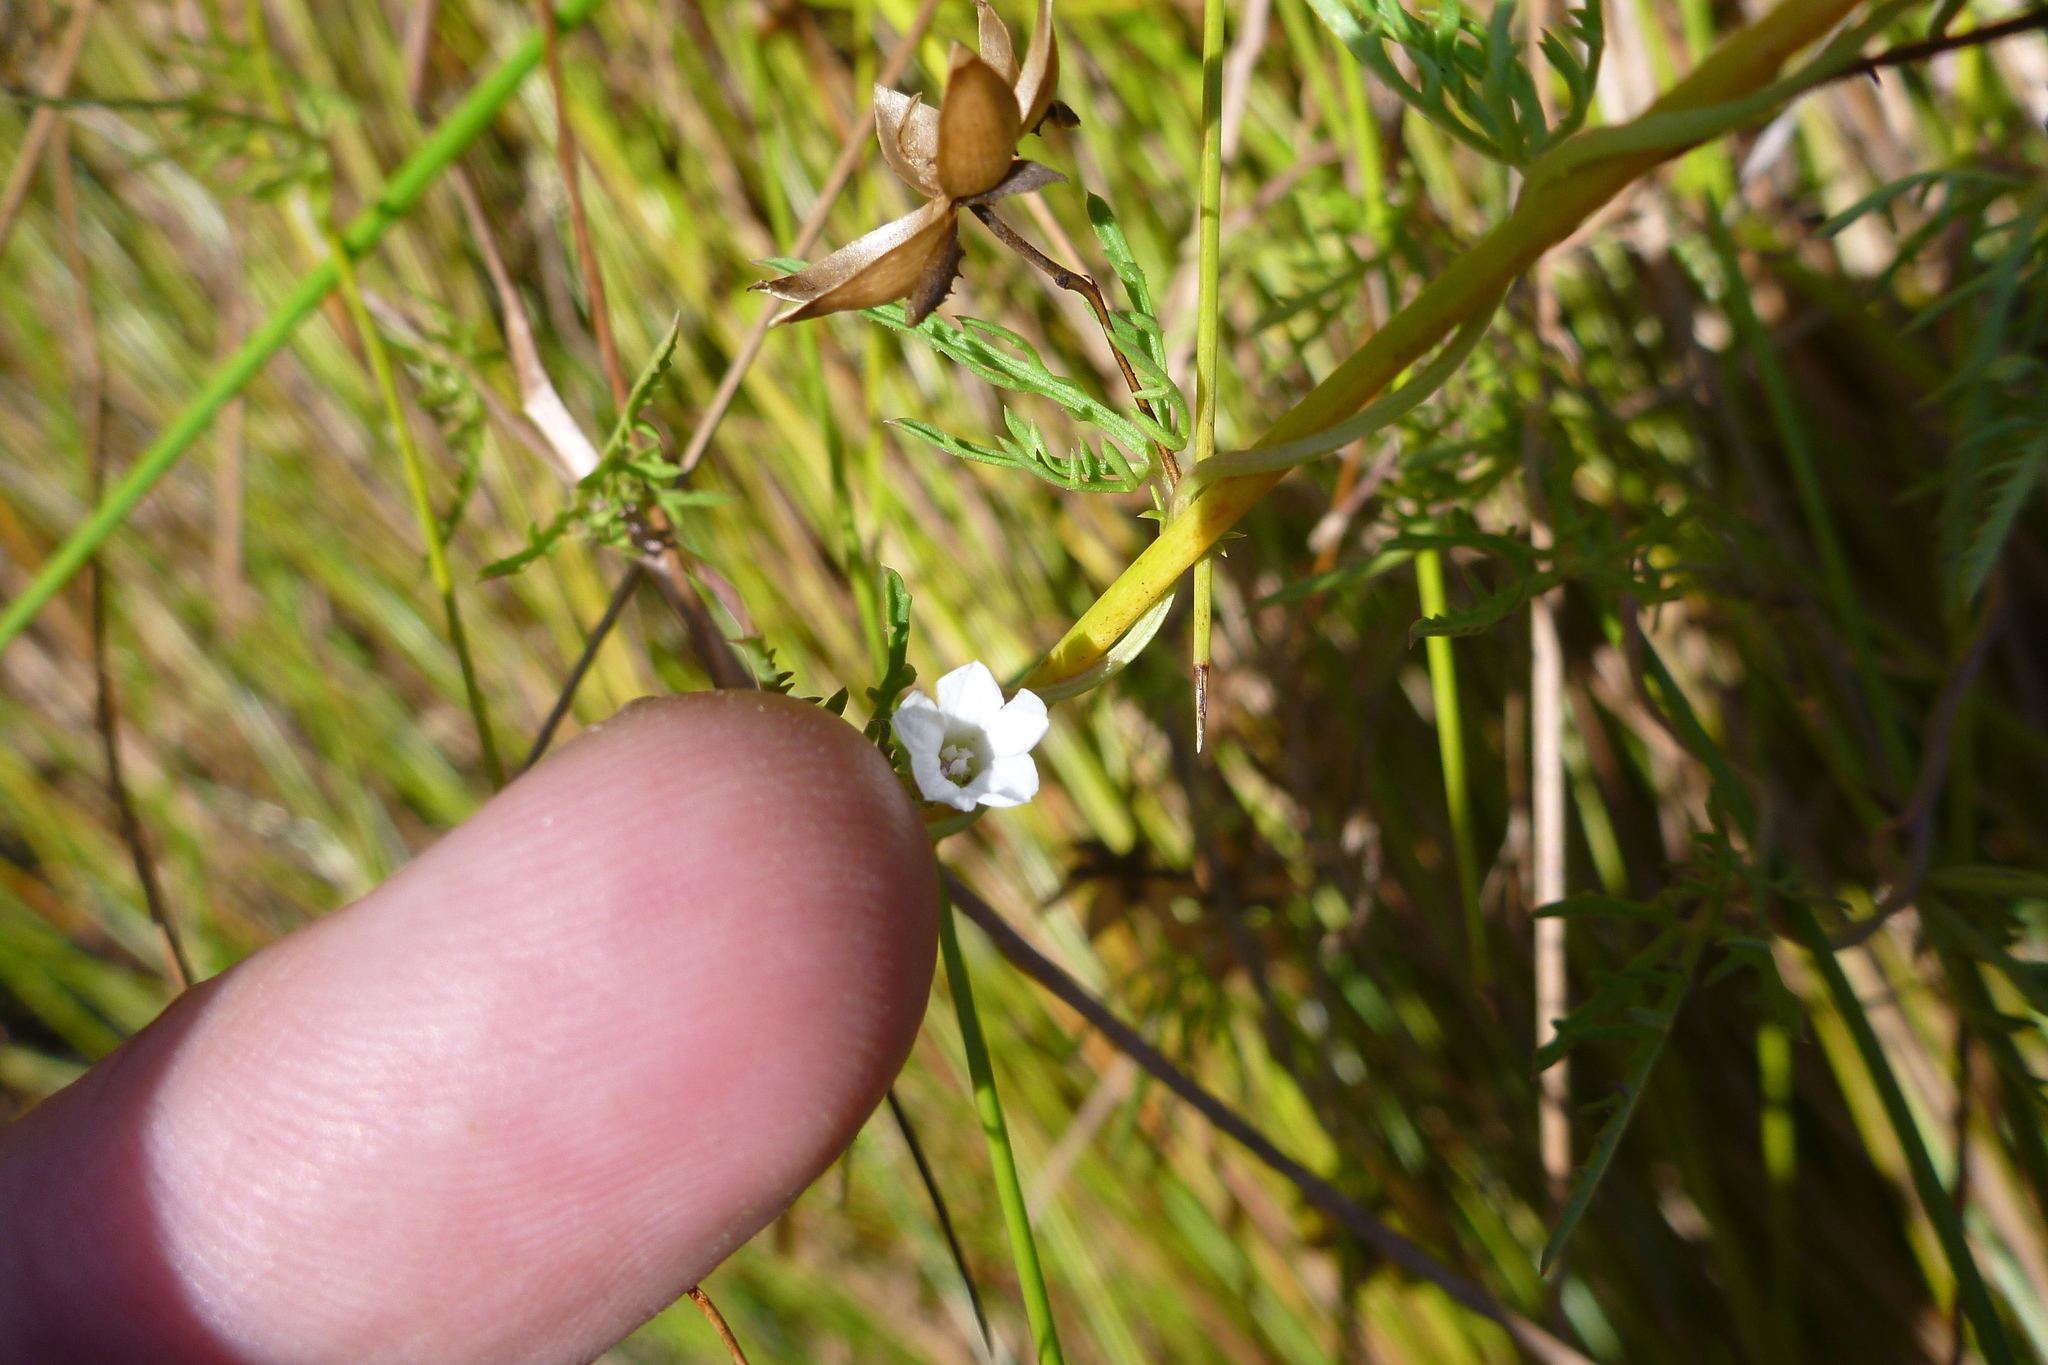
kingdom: Plantae
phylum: Tracheophyta
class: Magnoliopsida
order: Solanales
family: Convolvulaceae
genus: Ipomoea
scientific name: Ipomoea coptica
